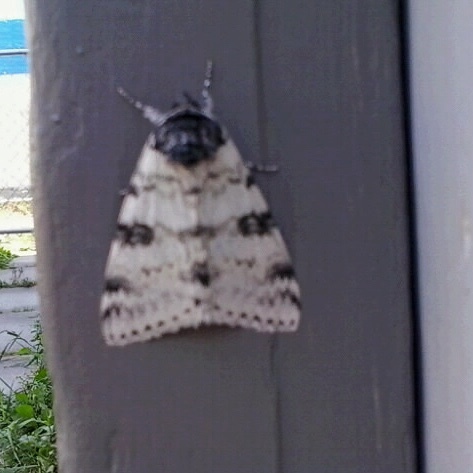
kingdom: Animalia
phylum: Arthropoda
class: Insecta
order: Lepidoptera
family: Erebidae
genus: Catocala
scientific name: Catocala relicta
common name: White underwing
